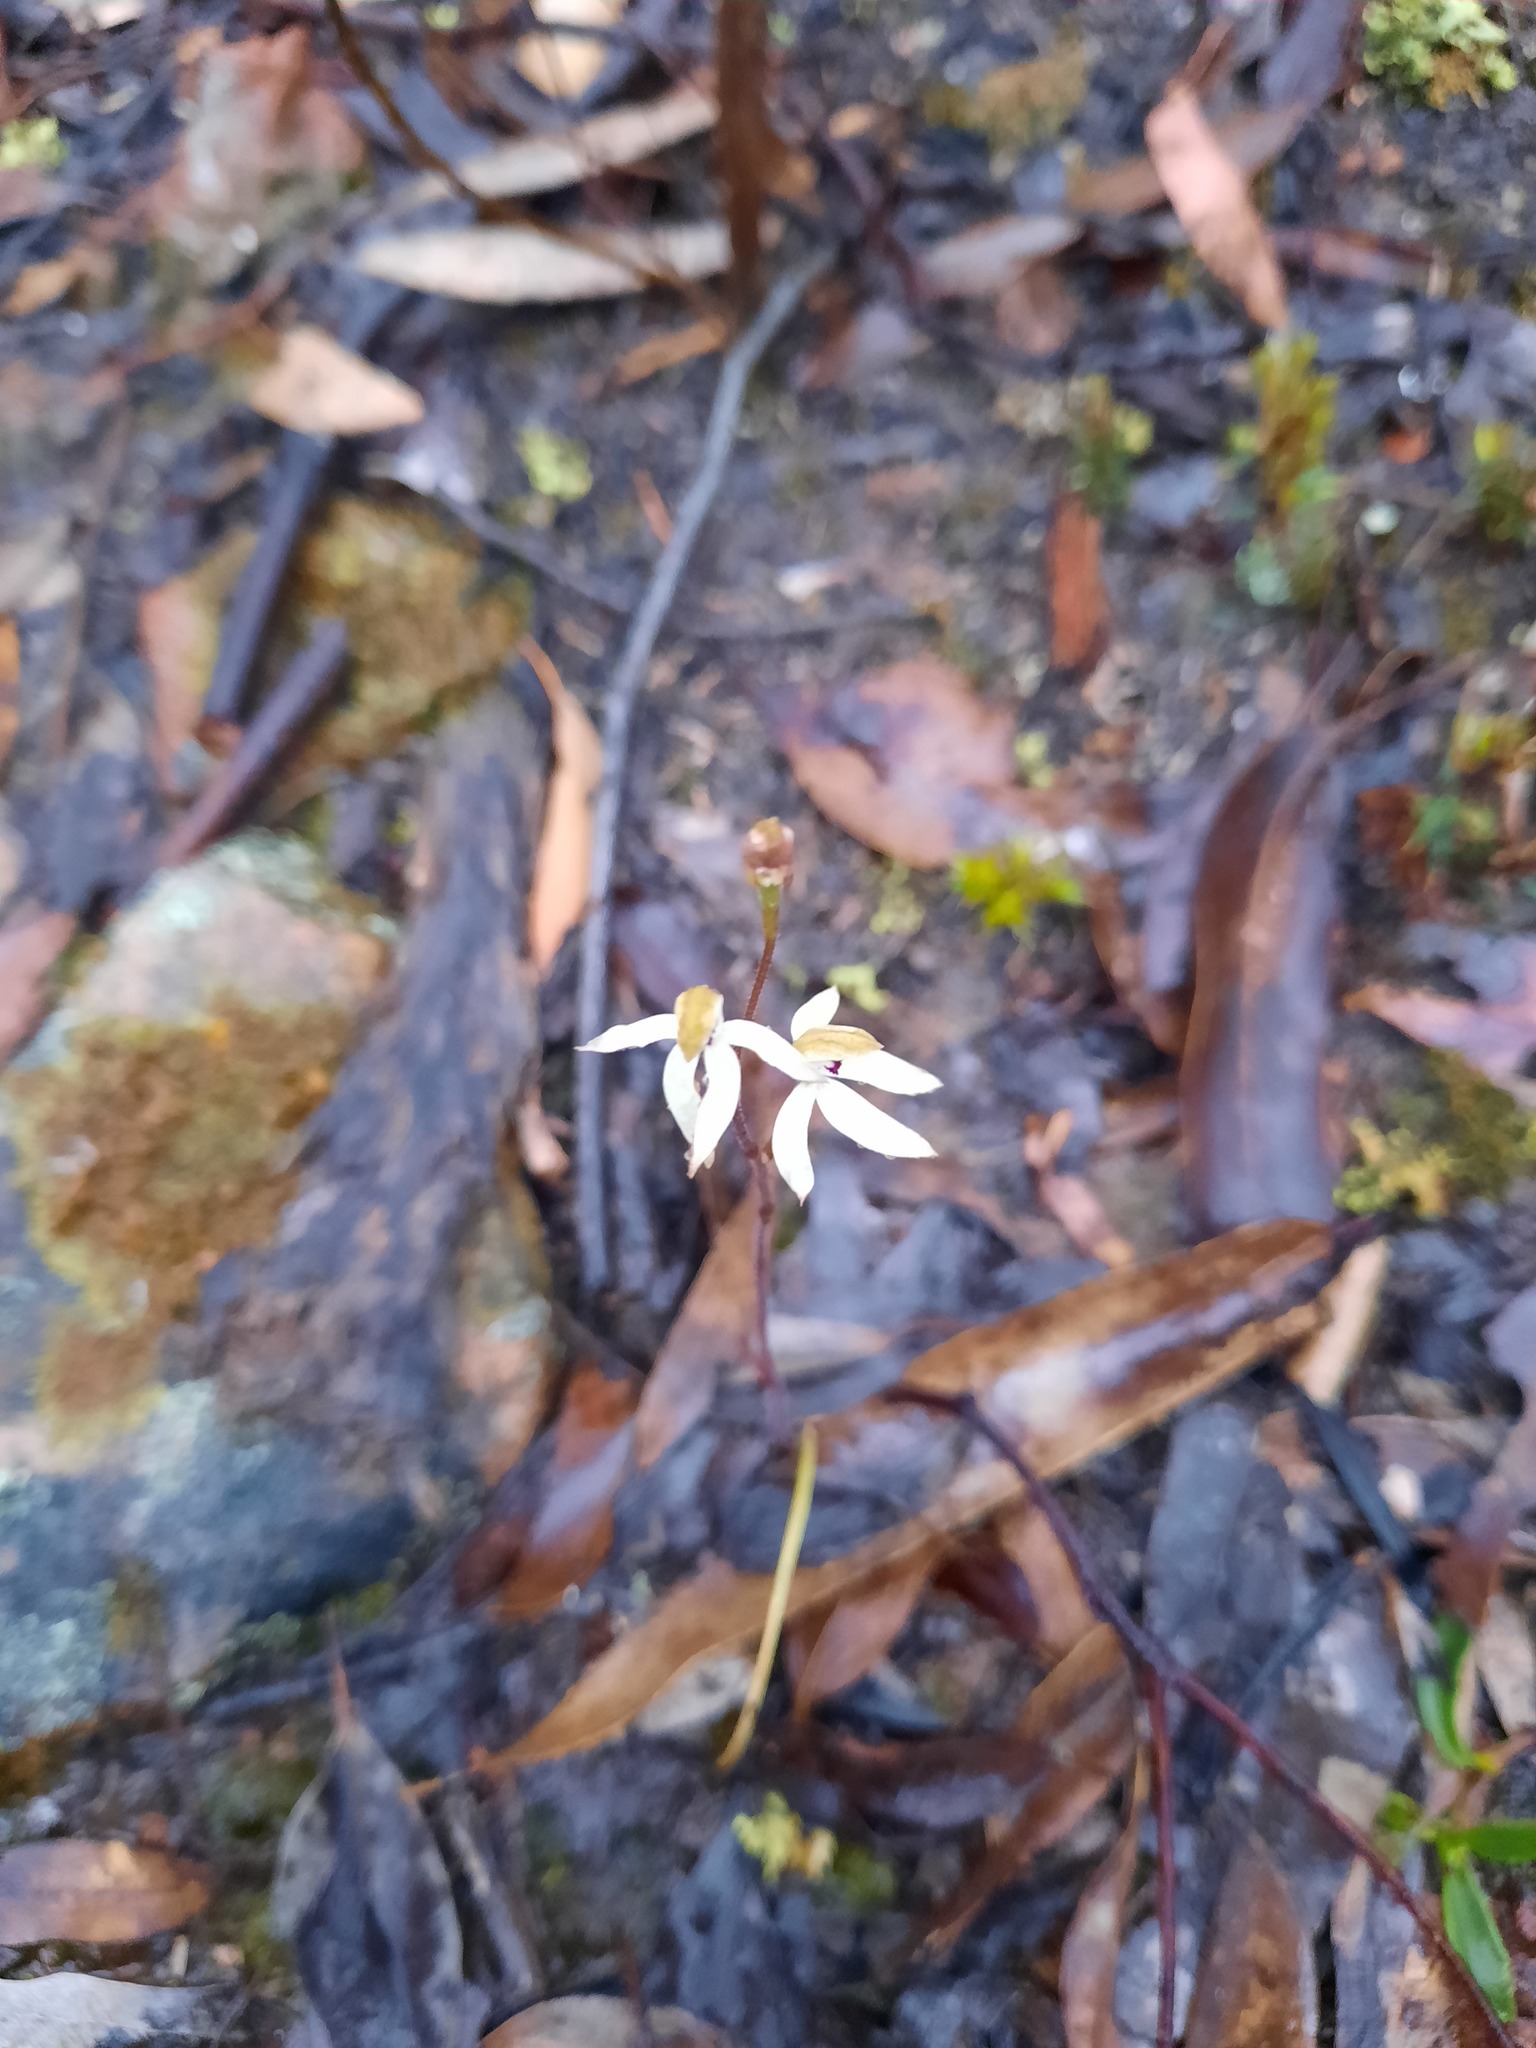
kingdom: Plantae
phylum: Tracheophyta
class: Liliopsida
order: Asparagales
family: Orchidaceae
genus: Caladenia
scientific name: Caladenia cucullata
